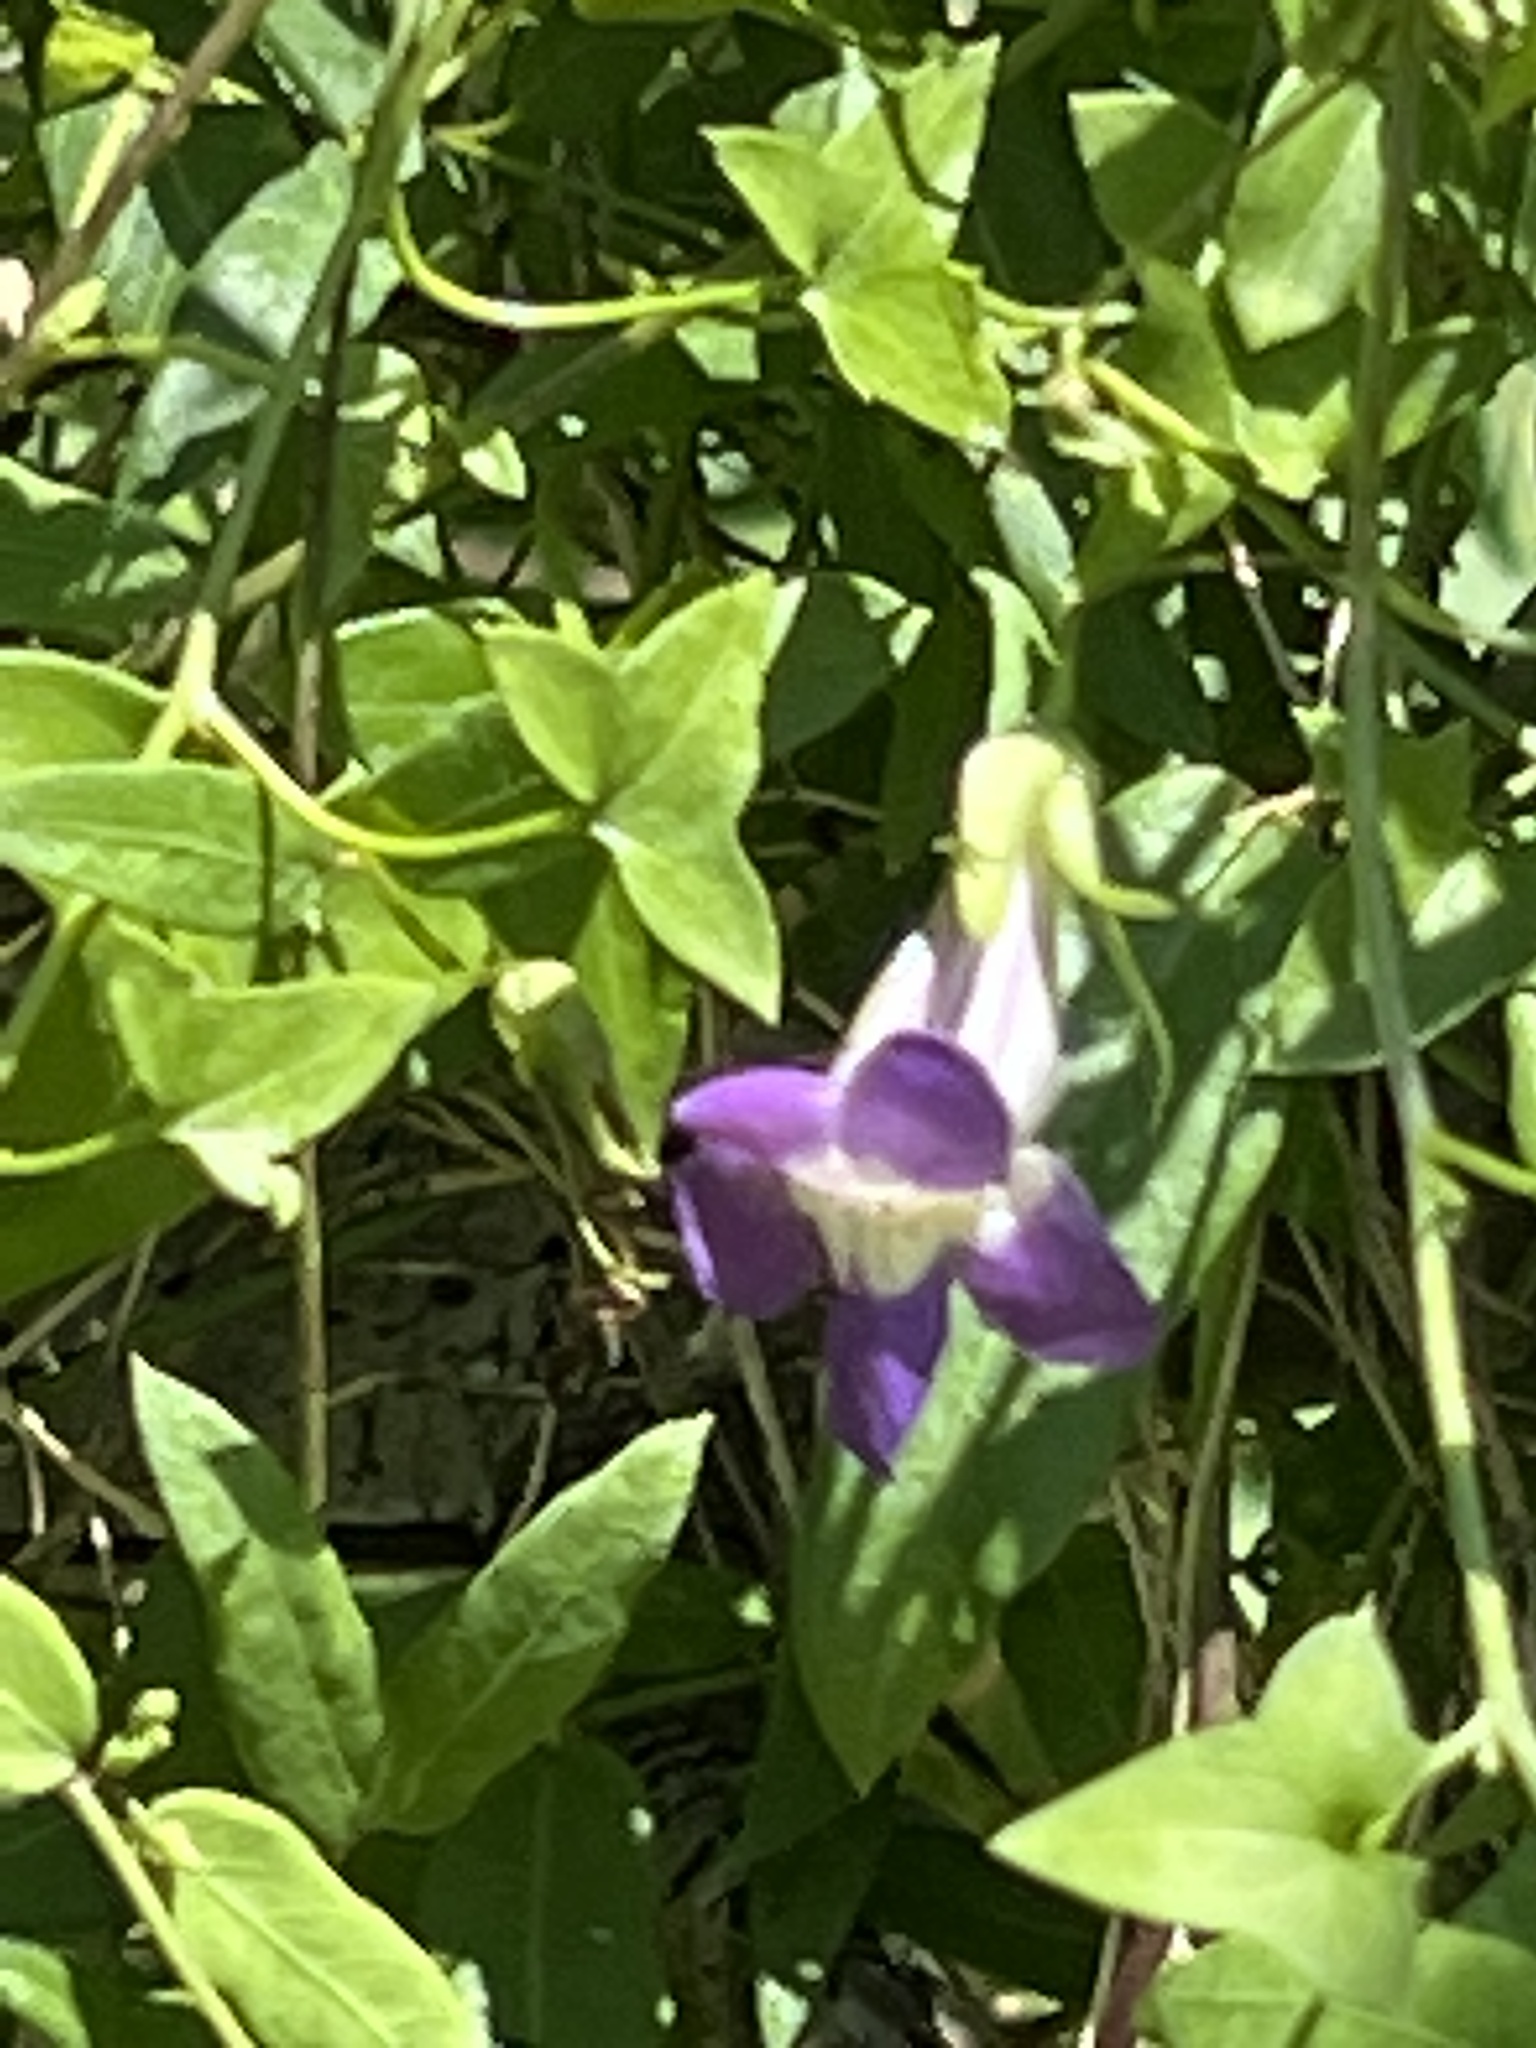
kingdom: Plantae
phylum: Tracheophyta
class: Magnoliopsida
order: Lamiales
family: Plantaginaceae
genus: Maurandella
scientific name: Maurandella antirrhiniflora
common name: Violet twining-snapdragon
